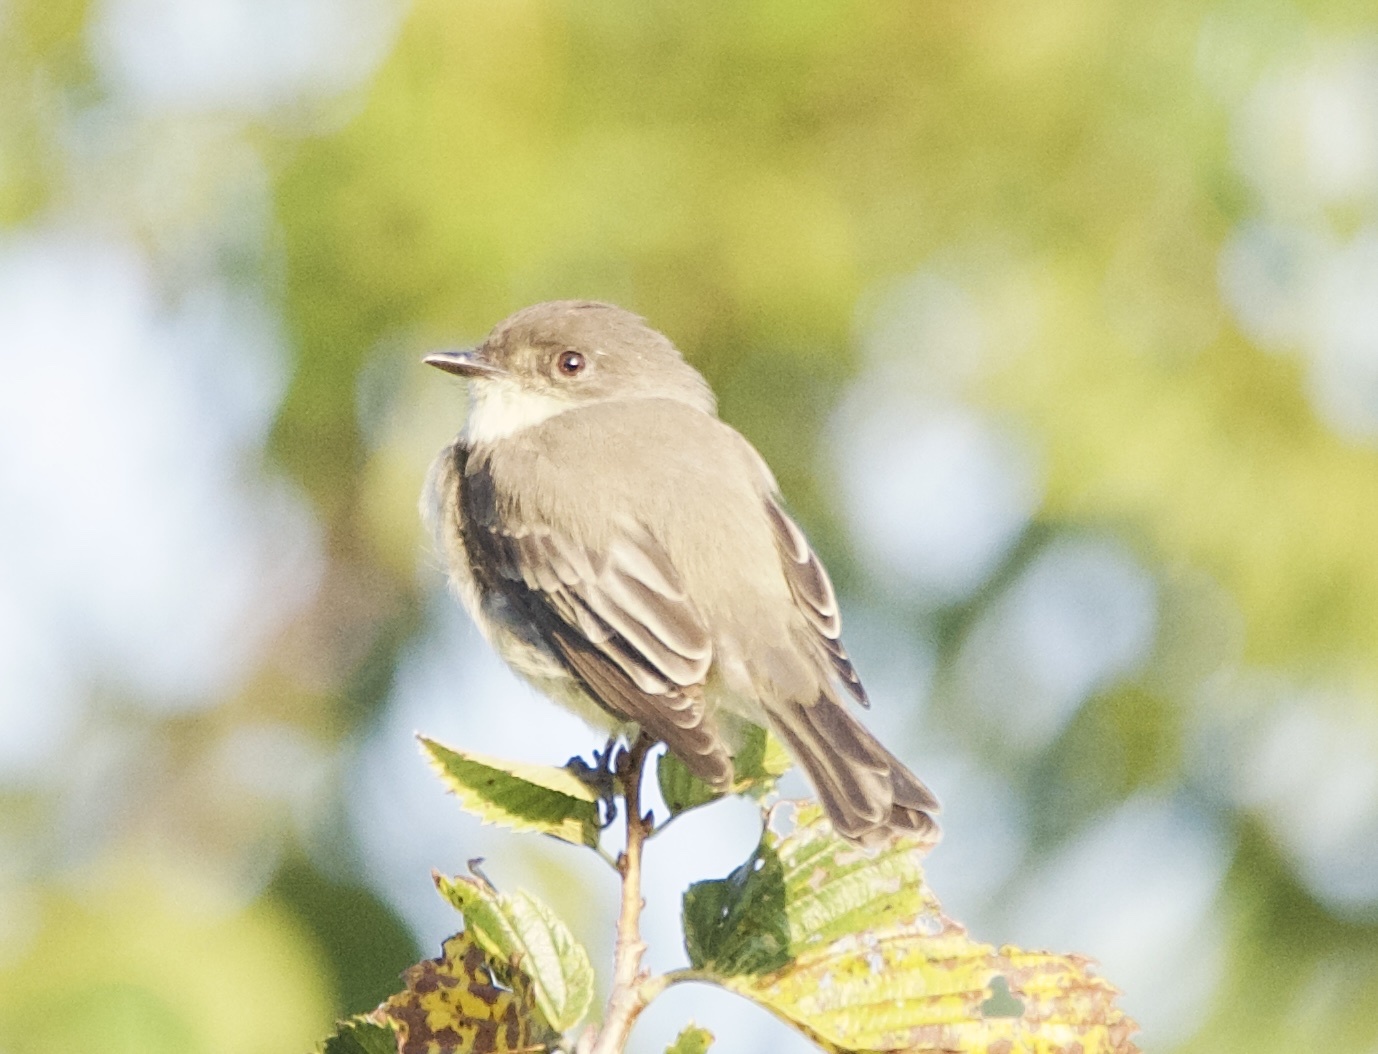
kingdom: Animalia
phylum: Chordata
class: Aves
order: Passeriformes
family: Tyrannidae
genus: Sayornis
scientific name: Sayornis phoebe
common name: Eastern phoebe
